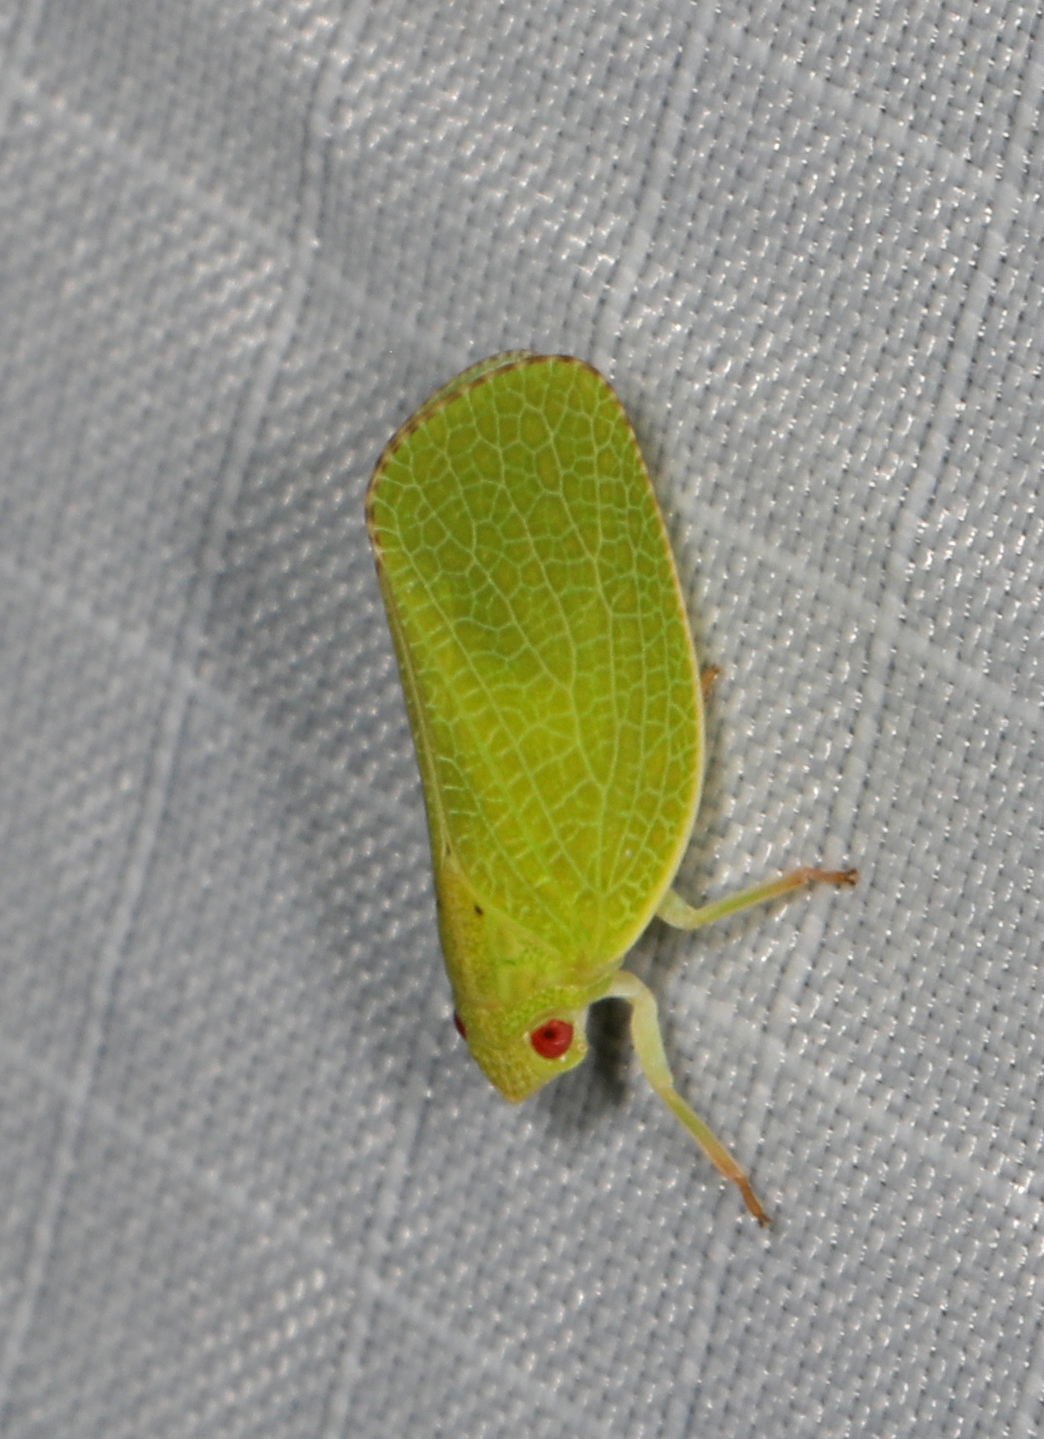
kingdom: Animalia
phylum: Arthropoda
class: Insecta
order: Hemiptera
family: Acanaloniidae
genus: Acanalonia
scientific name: Acanalonia conica
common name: Green cone-headed planthopper
